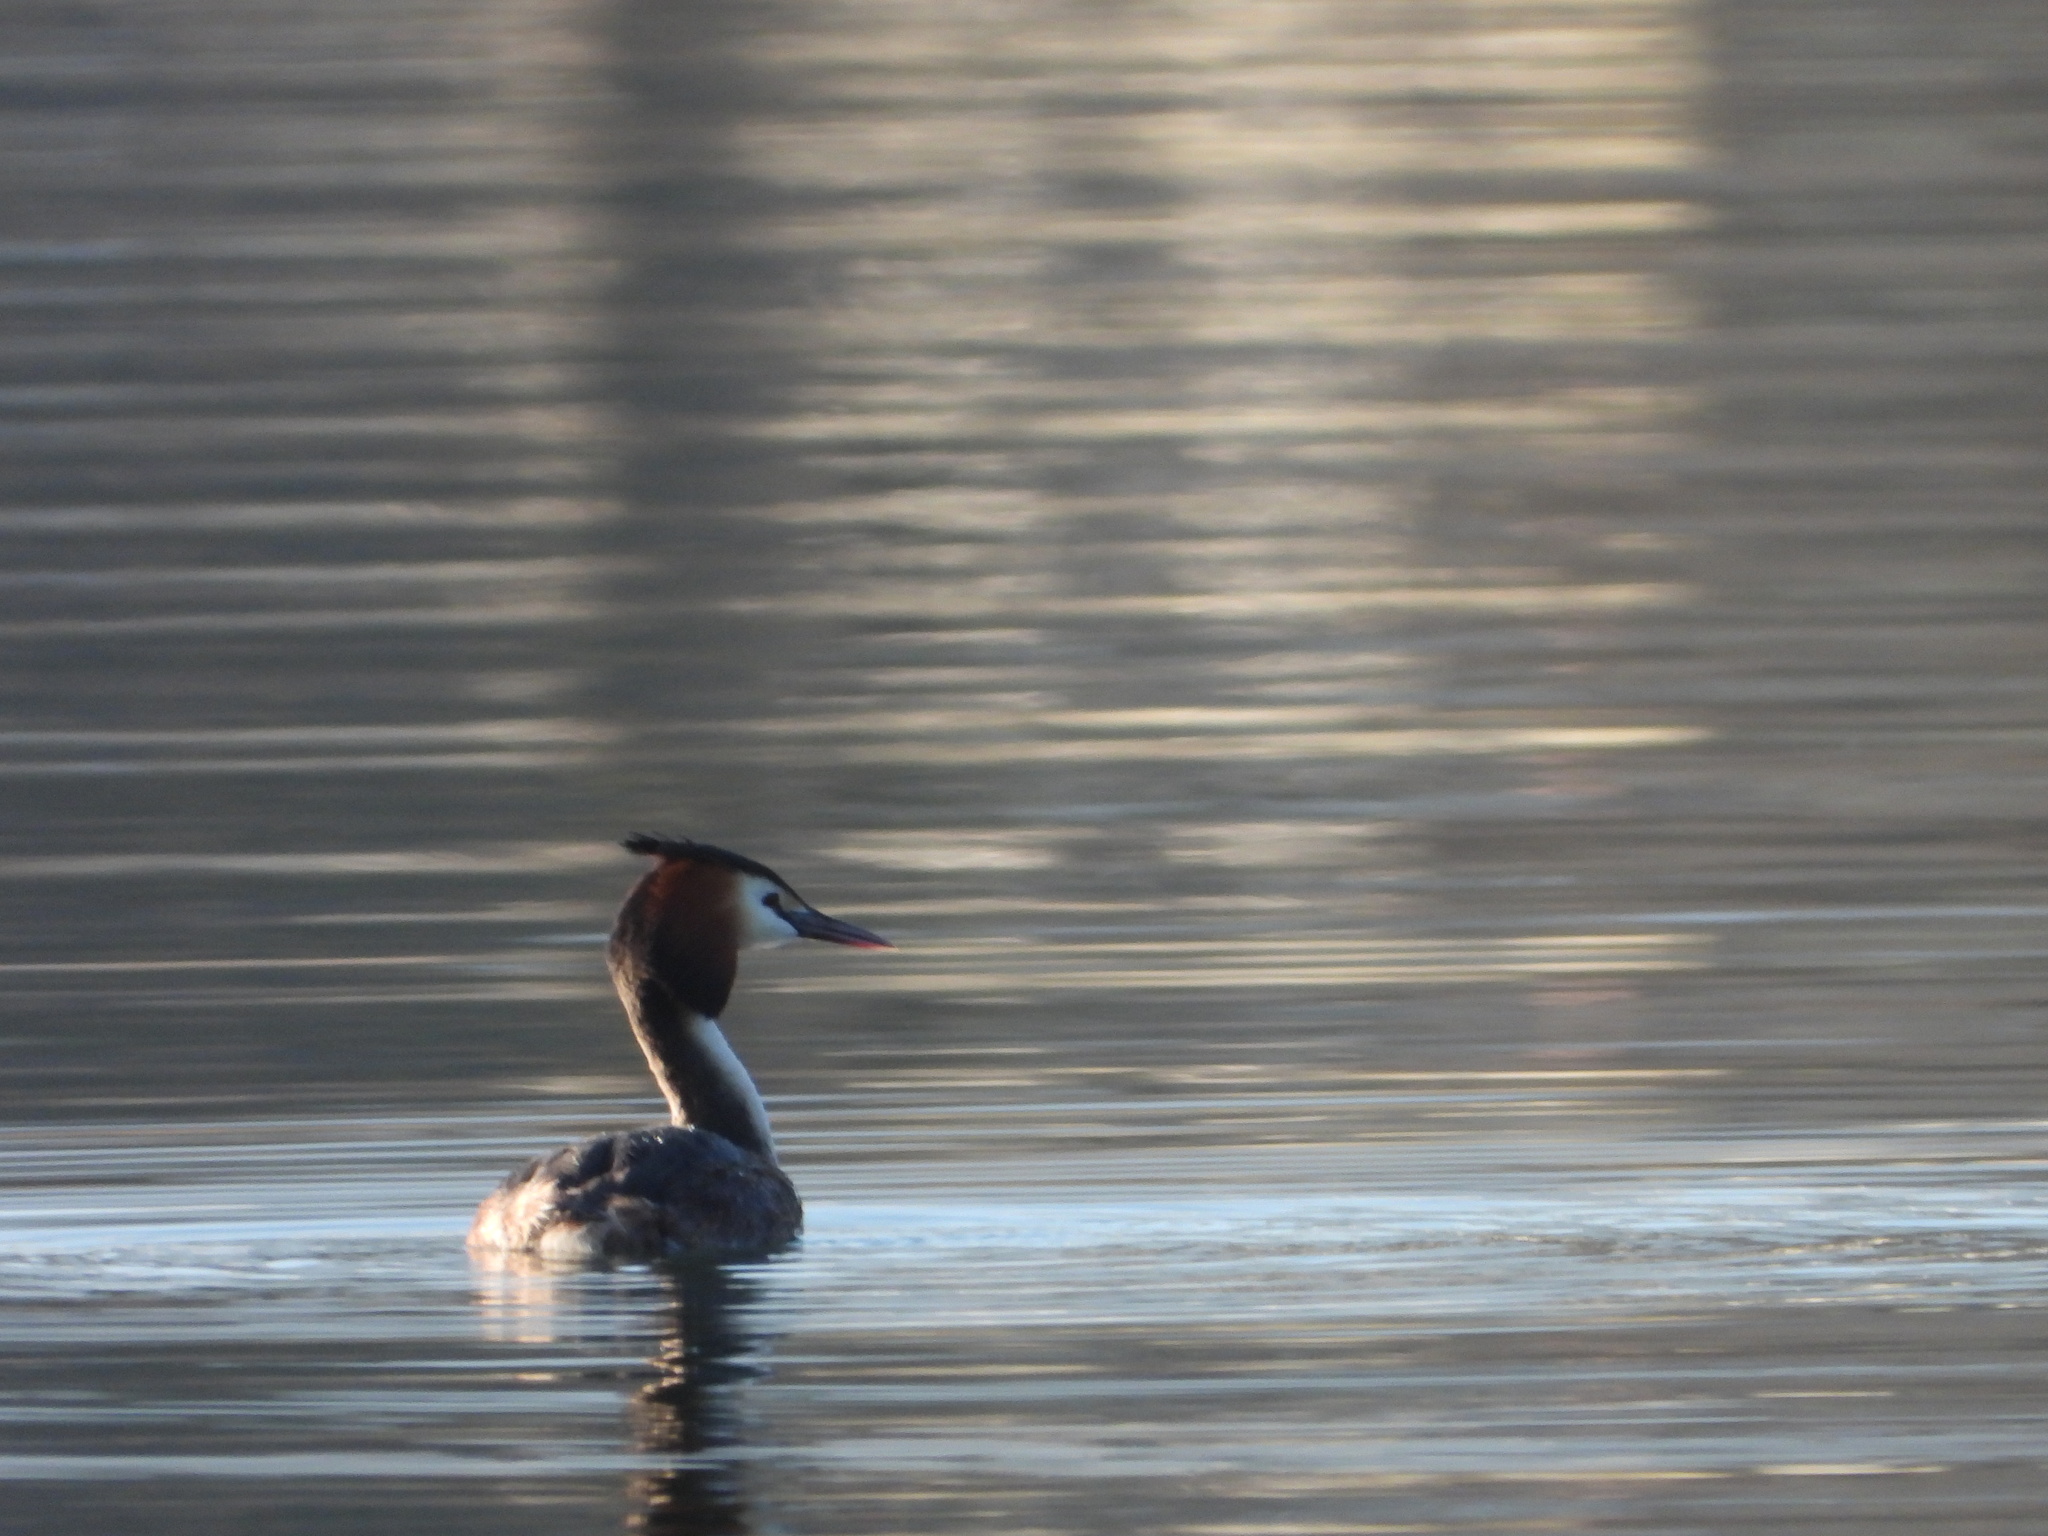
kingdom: Animalia
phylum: Chordata
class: Aves
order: Podicipediformes
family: Podicipedidae
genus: Podiceps
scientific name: Podiceps cristatus
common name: Great crested grebe
